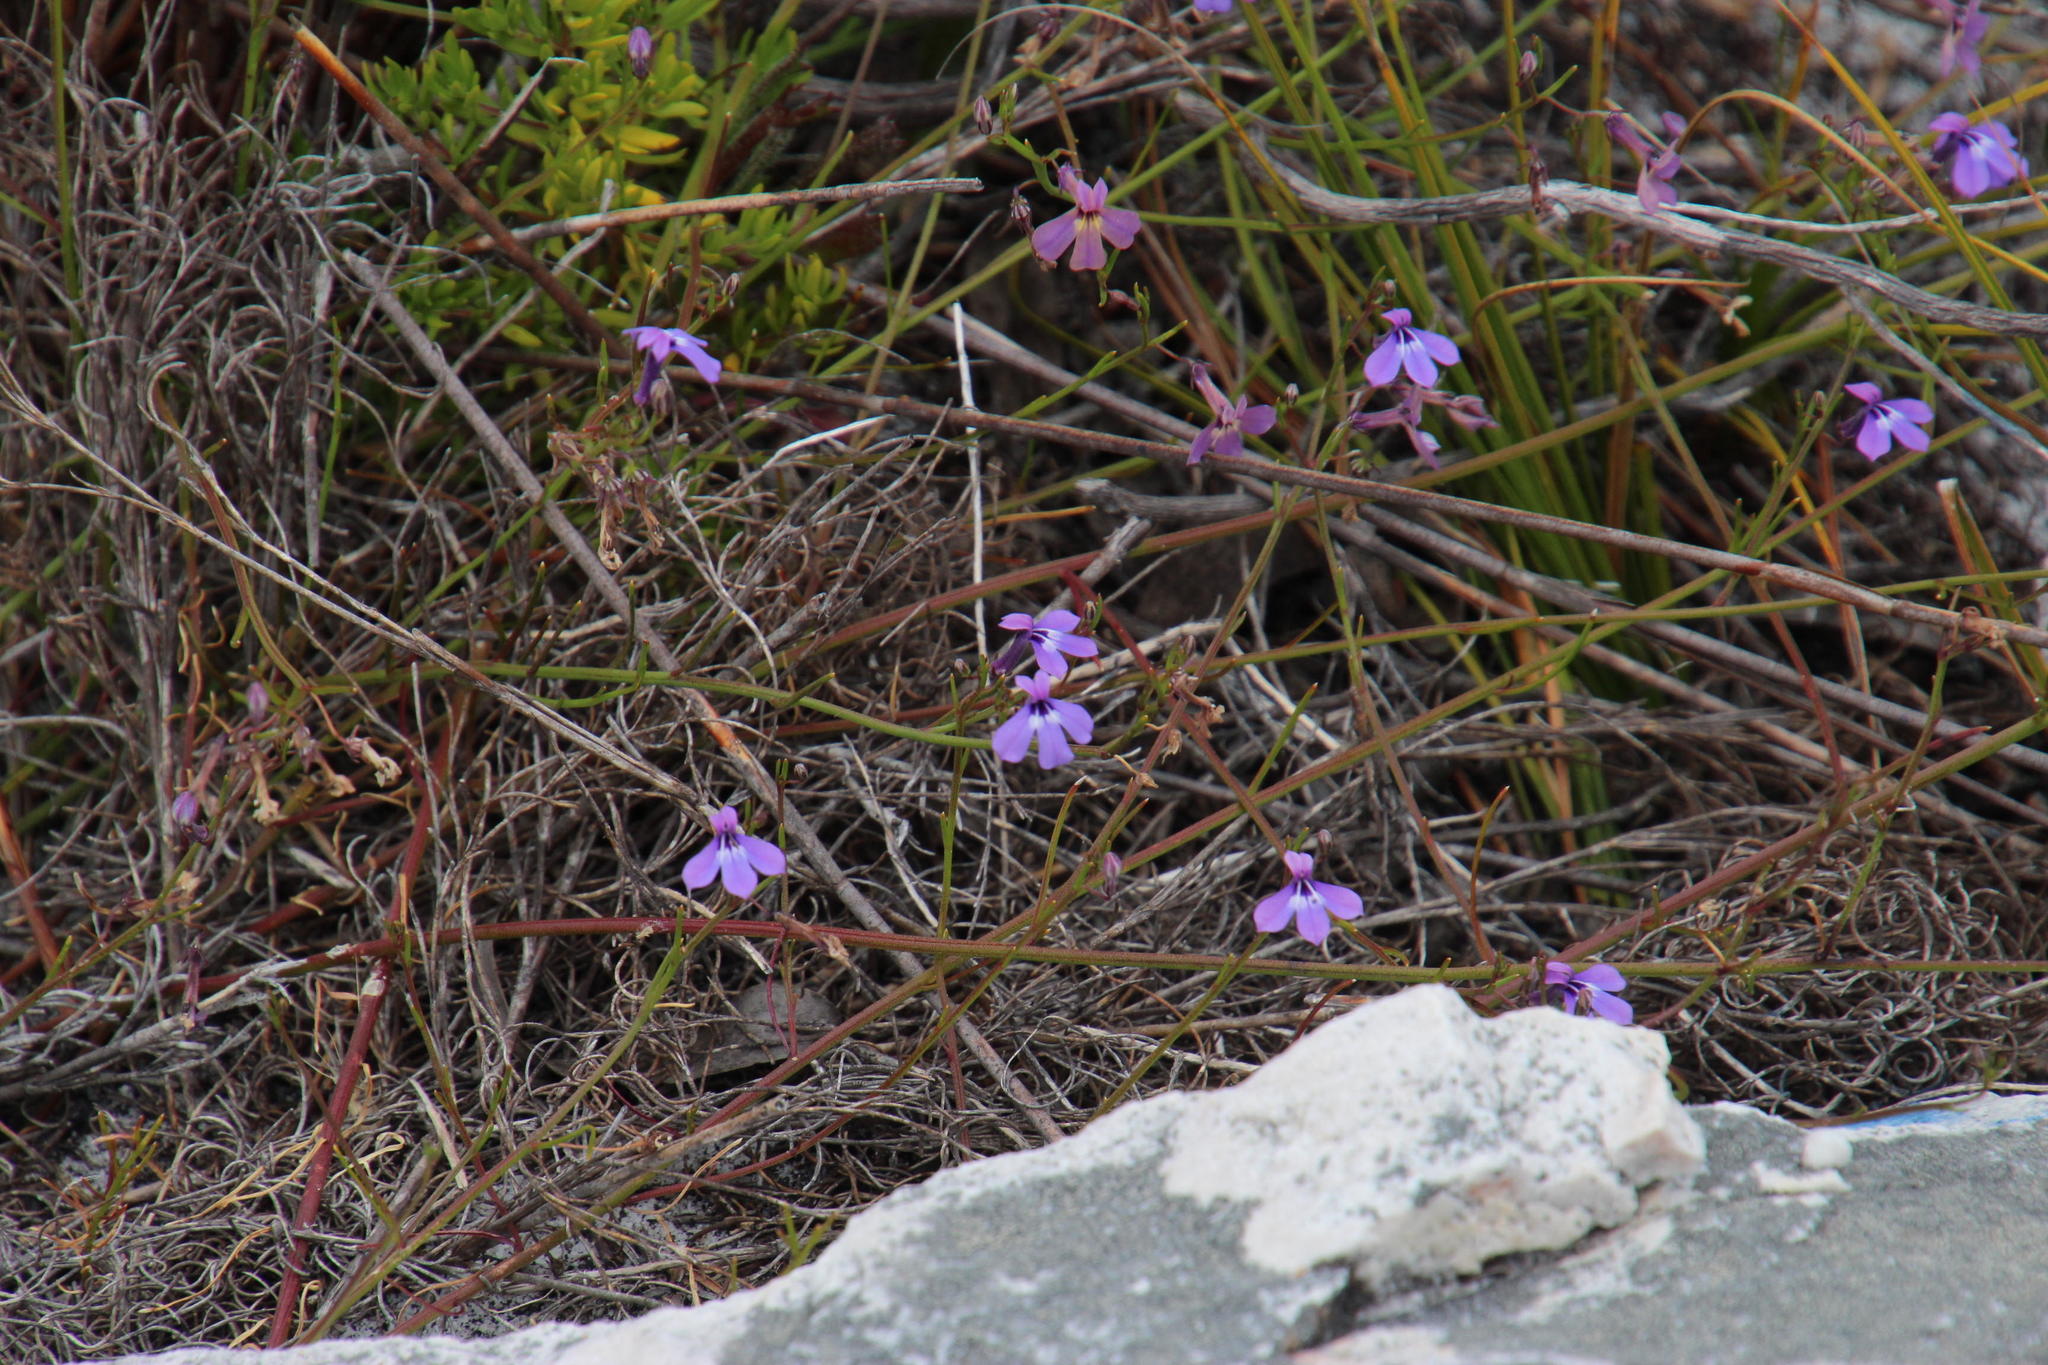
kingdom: Plantae
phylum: Tracheophyta
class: Magnoliopsida
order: Asterales
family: Campanulaceae
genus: Lobelia
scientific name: Lobelia setacea
